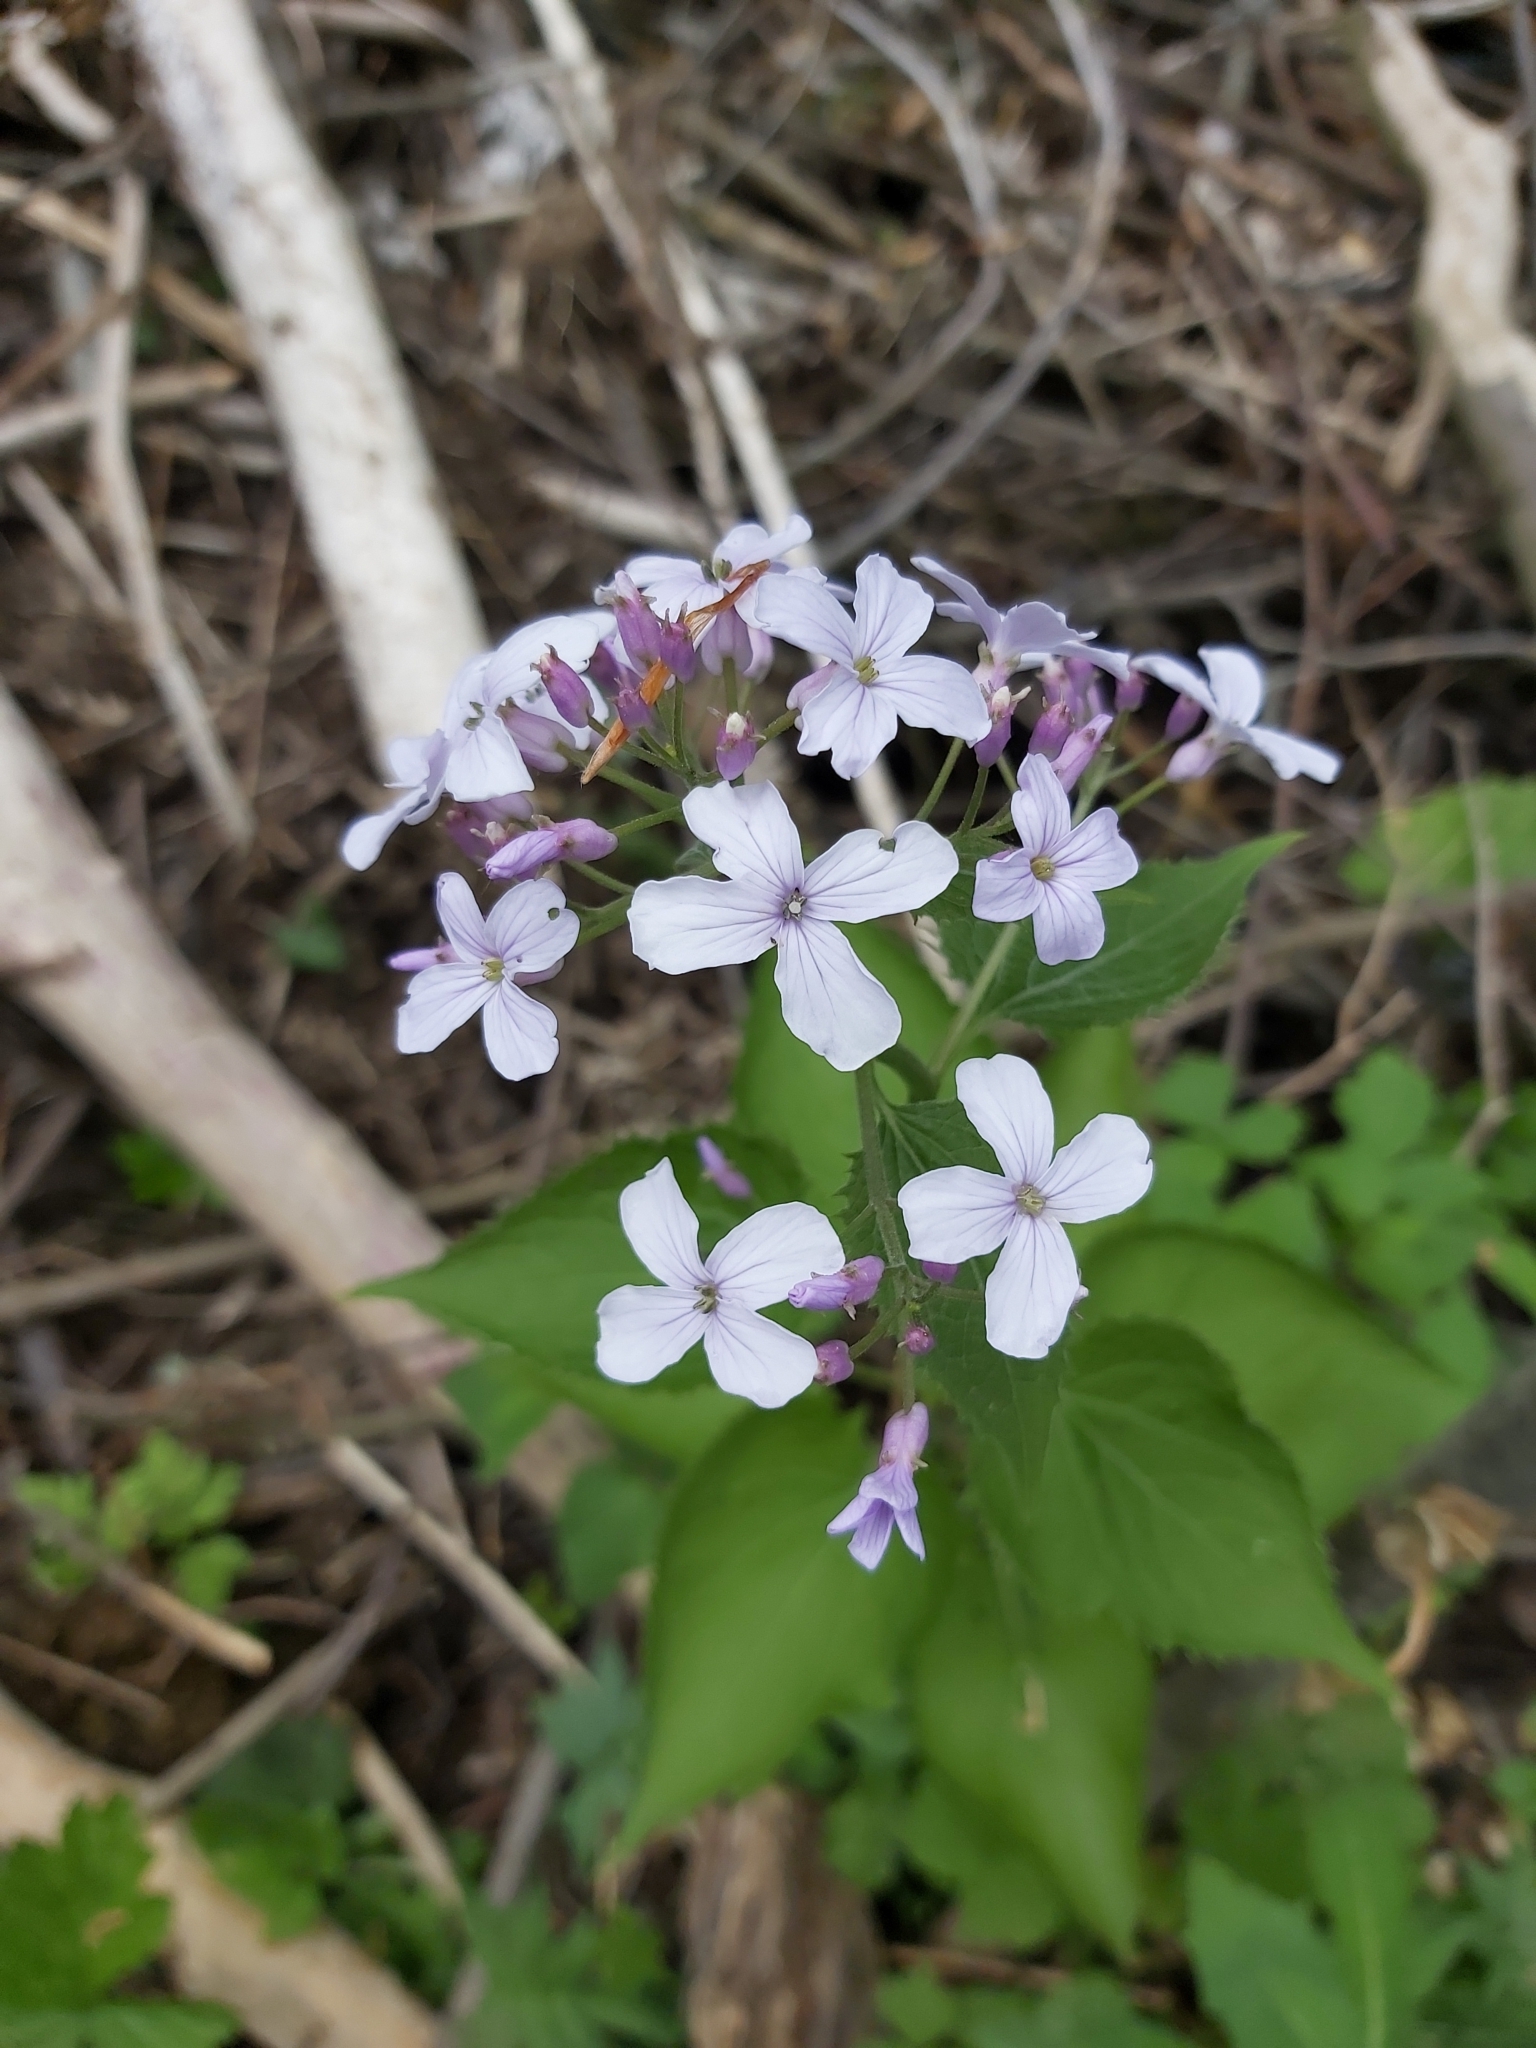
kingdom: Plantae
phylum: Tracheophyta
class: Magnoliopsida
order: Brassicales
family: Brassicaceae
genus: Lunaria
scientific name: Lunaria rediviva
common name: Perennial honesty
